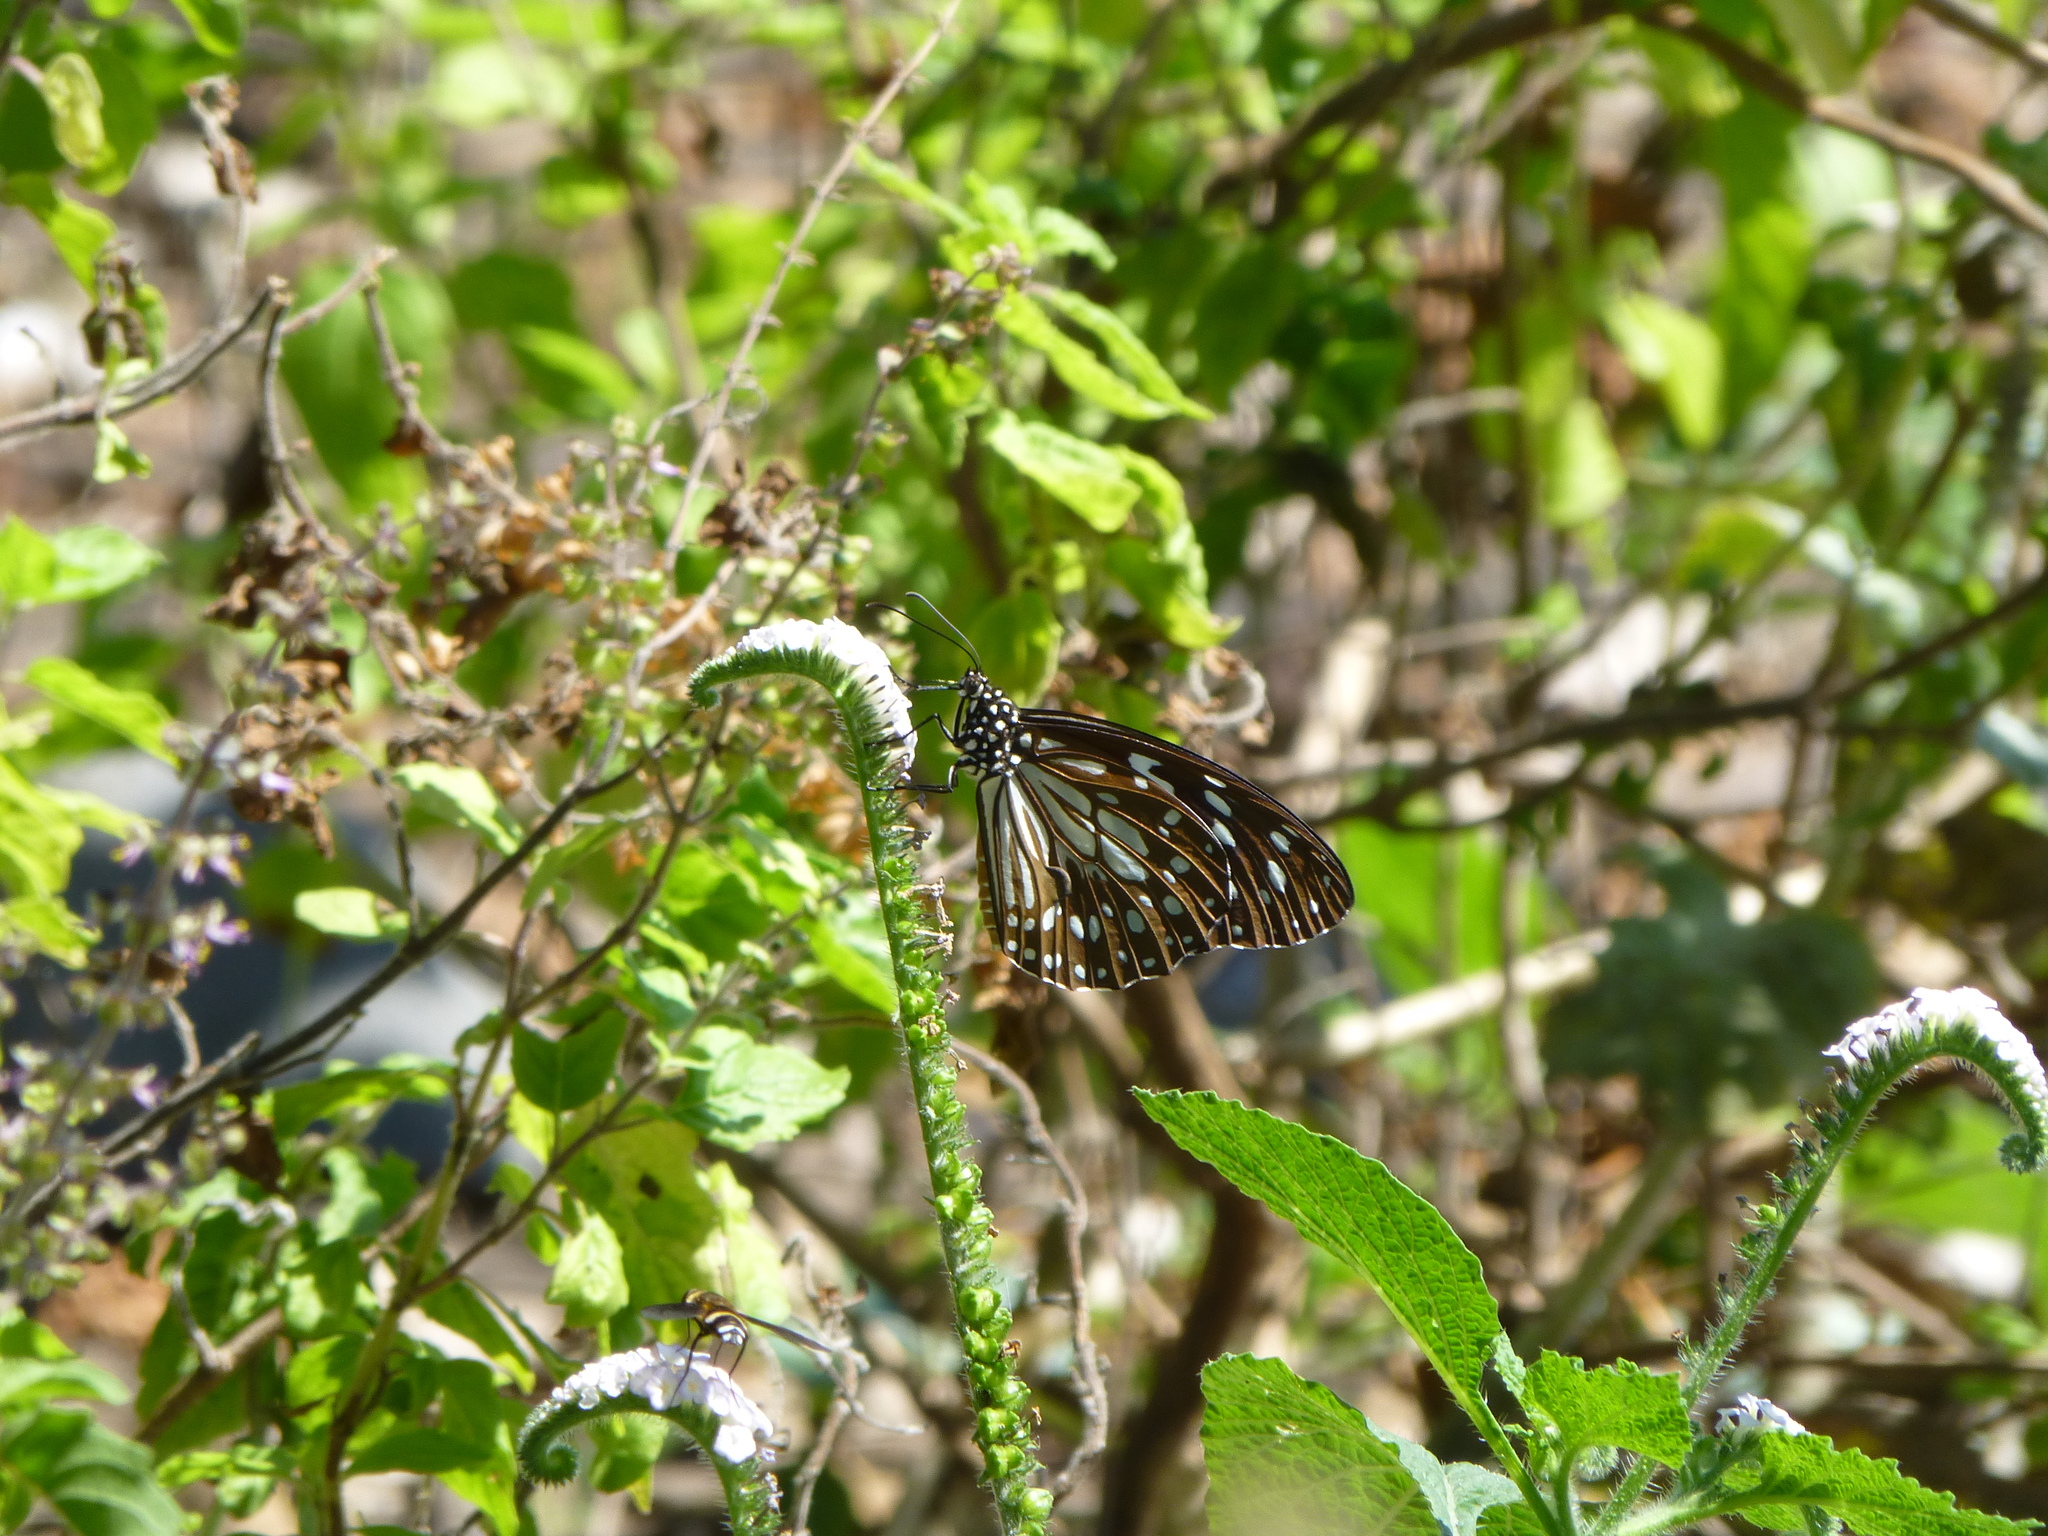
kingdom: Animalia
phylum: Arthropoda
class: Insecta
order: Lepidoptera
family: Nymphalidae
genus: Tirumala
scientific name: Tirumala septentrionis
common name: Dark blue tiger butterfly
